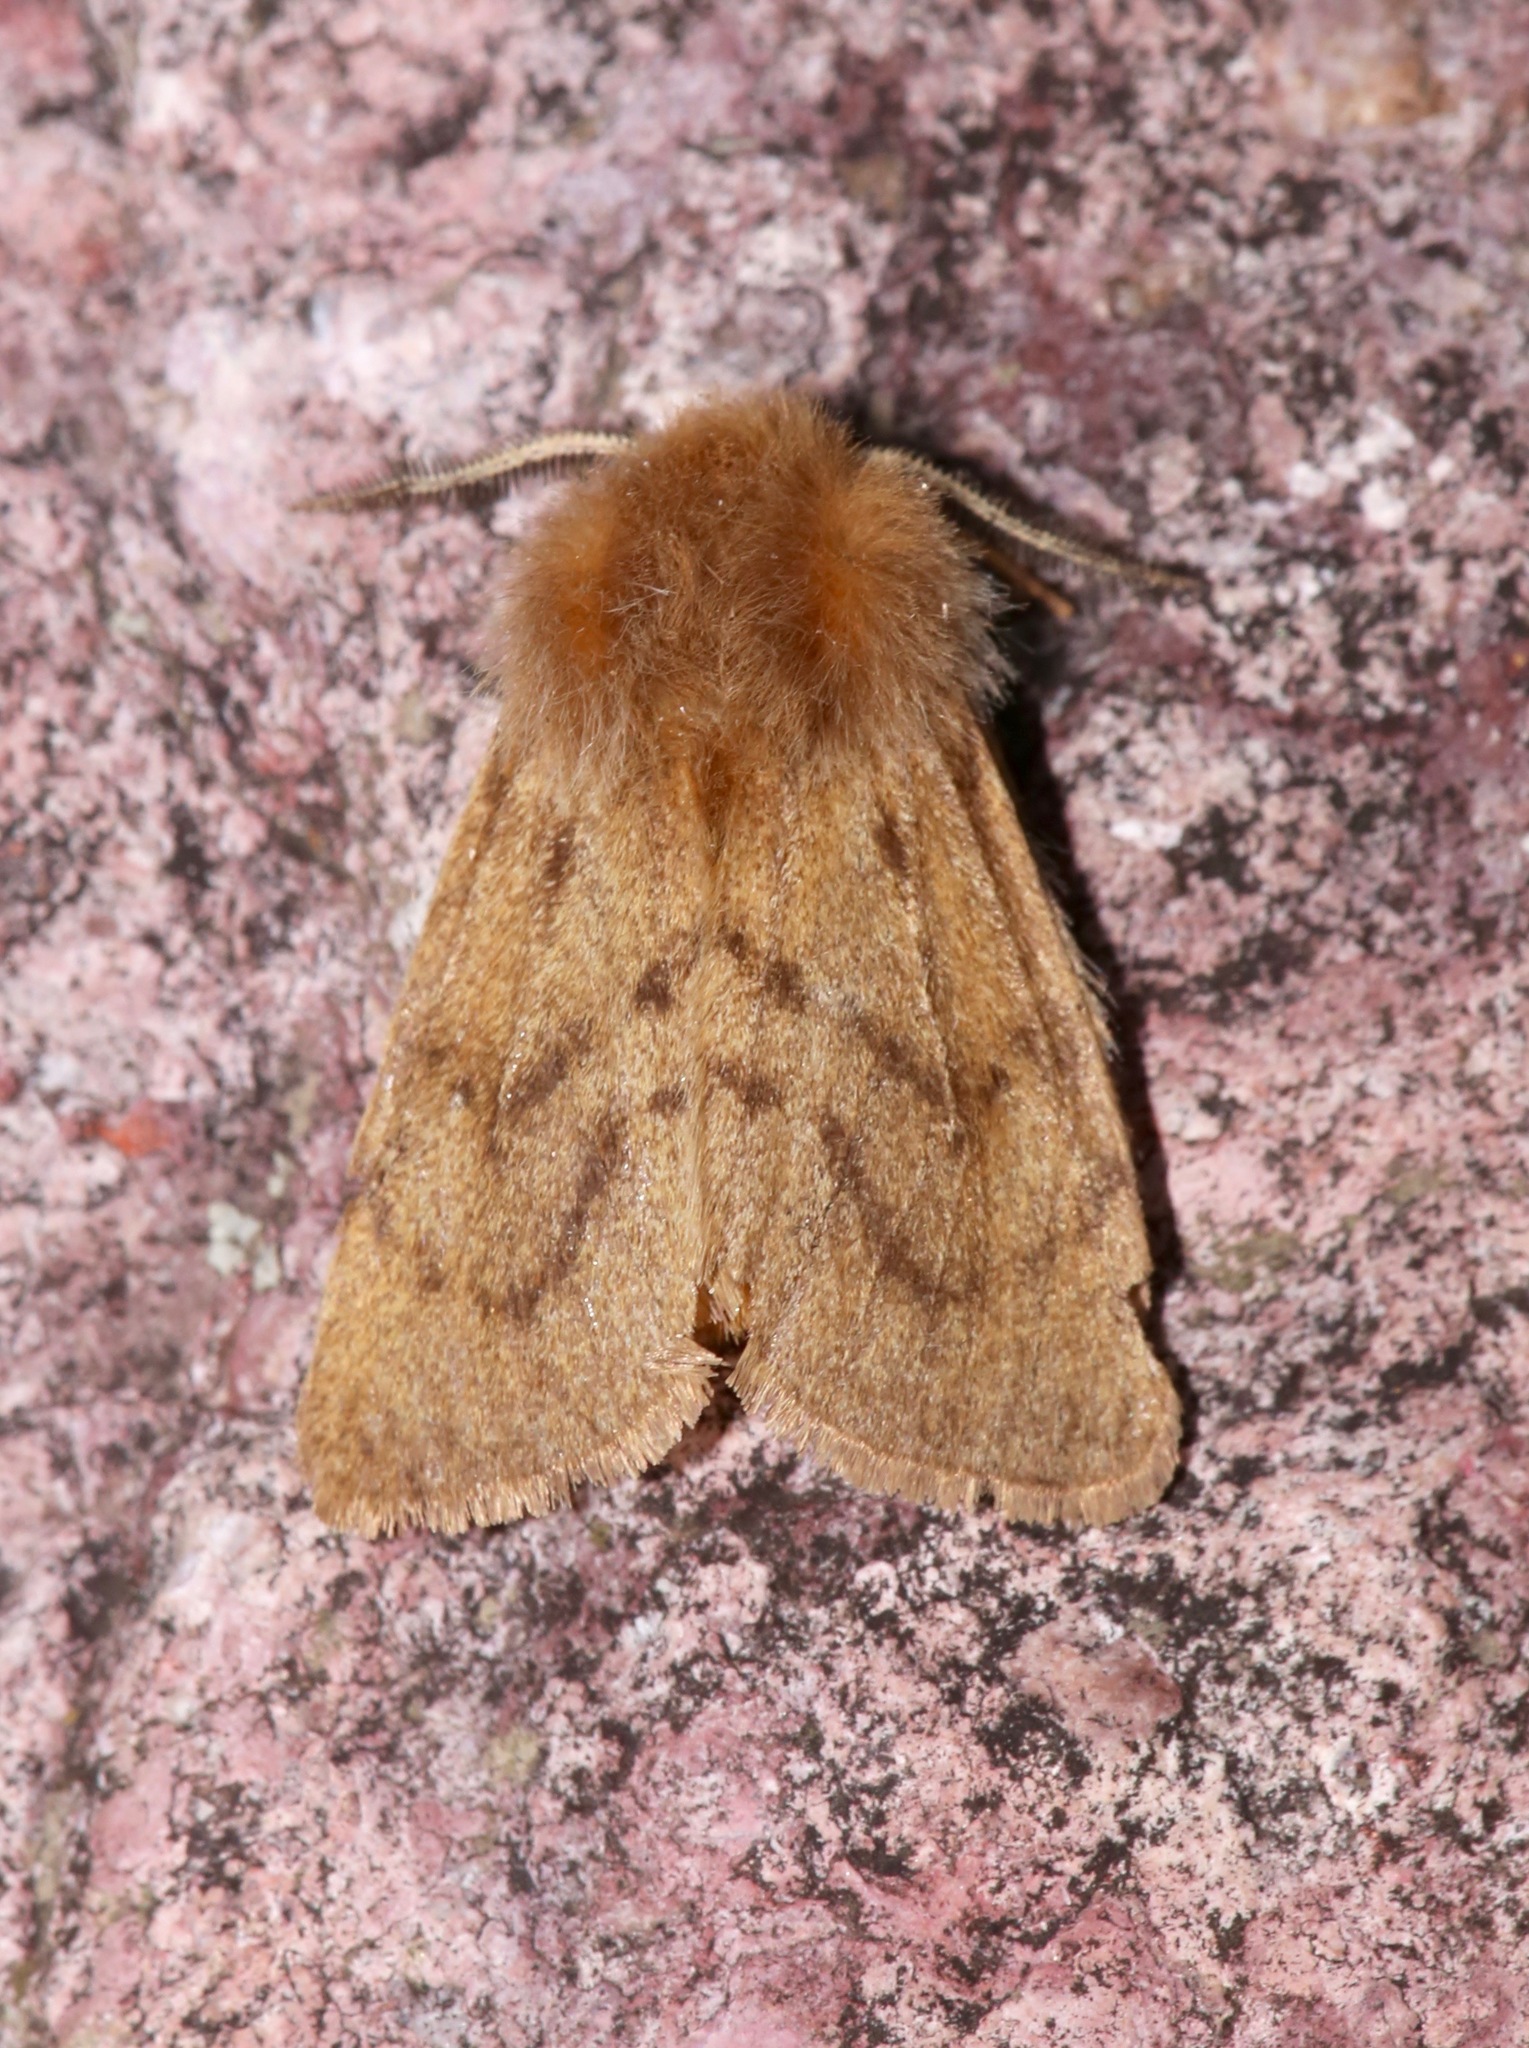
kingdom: Animalia
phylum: Arthropoda
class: Insecta
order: Lepidoptera
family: Erebidae
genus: Spilosoma
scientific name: Spilosoma vagans
